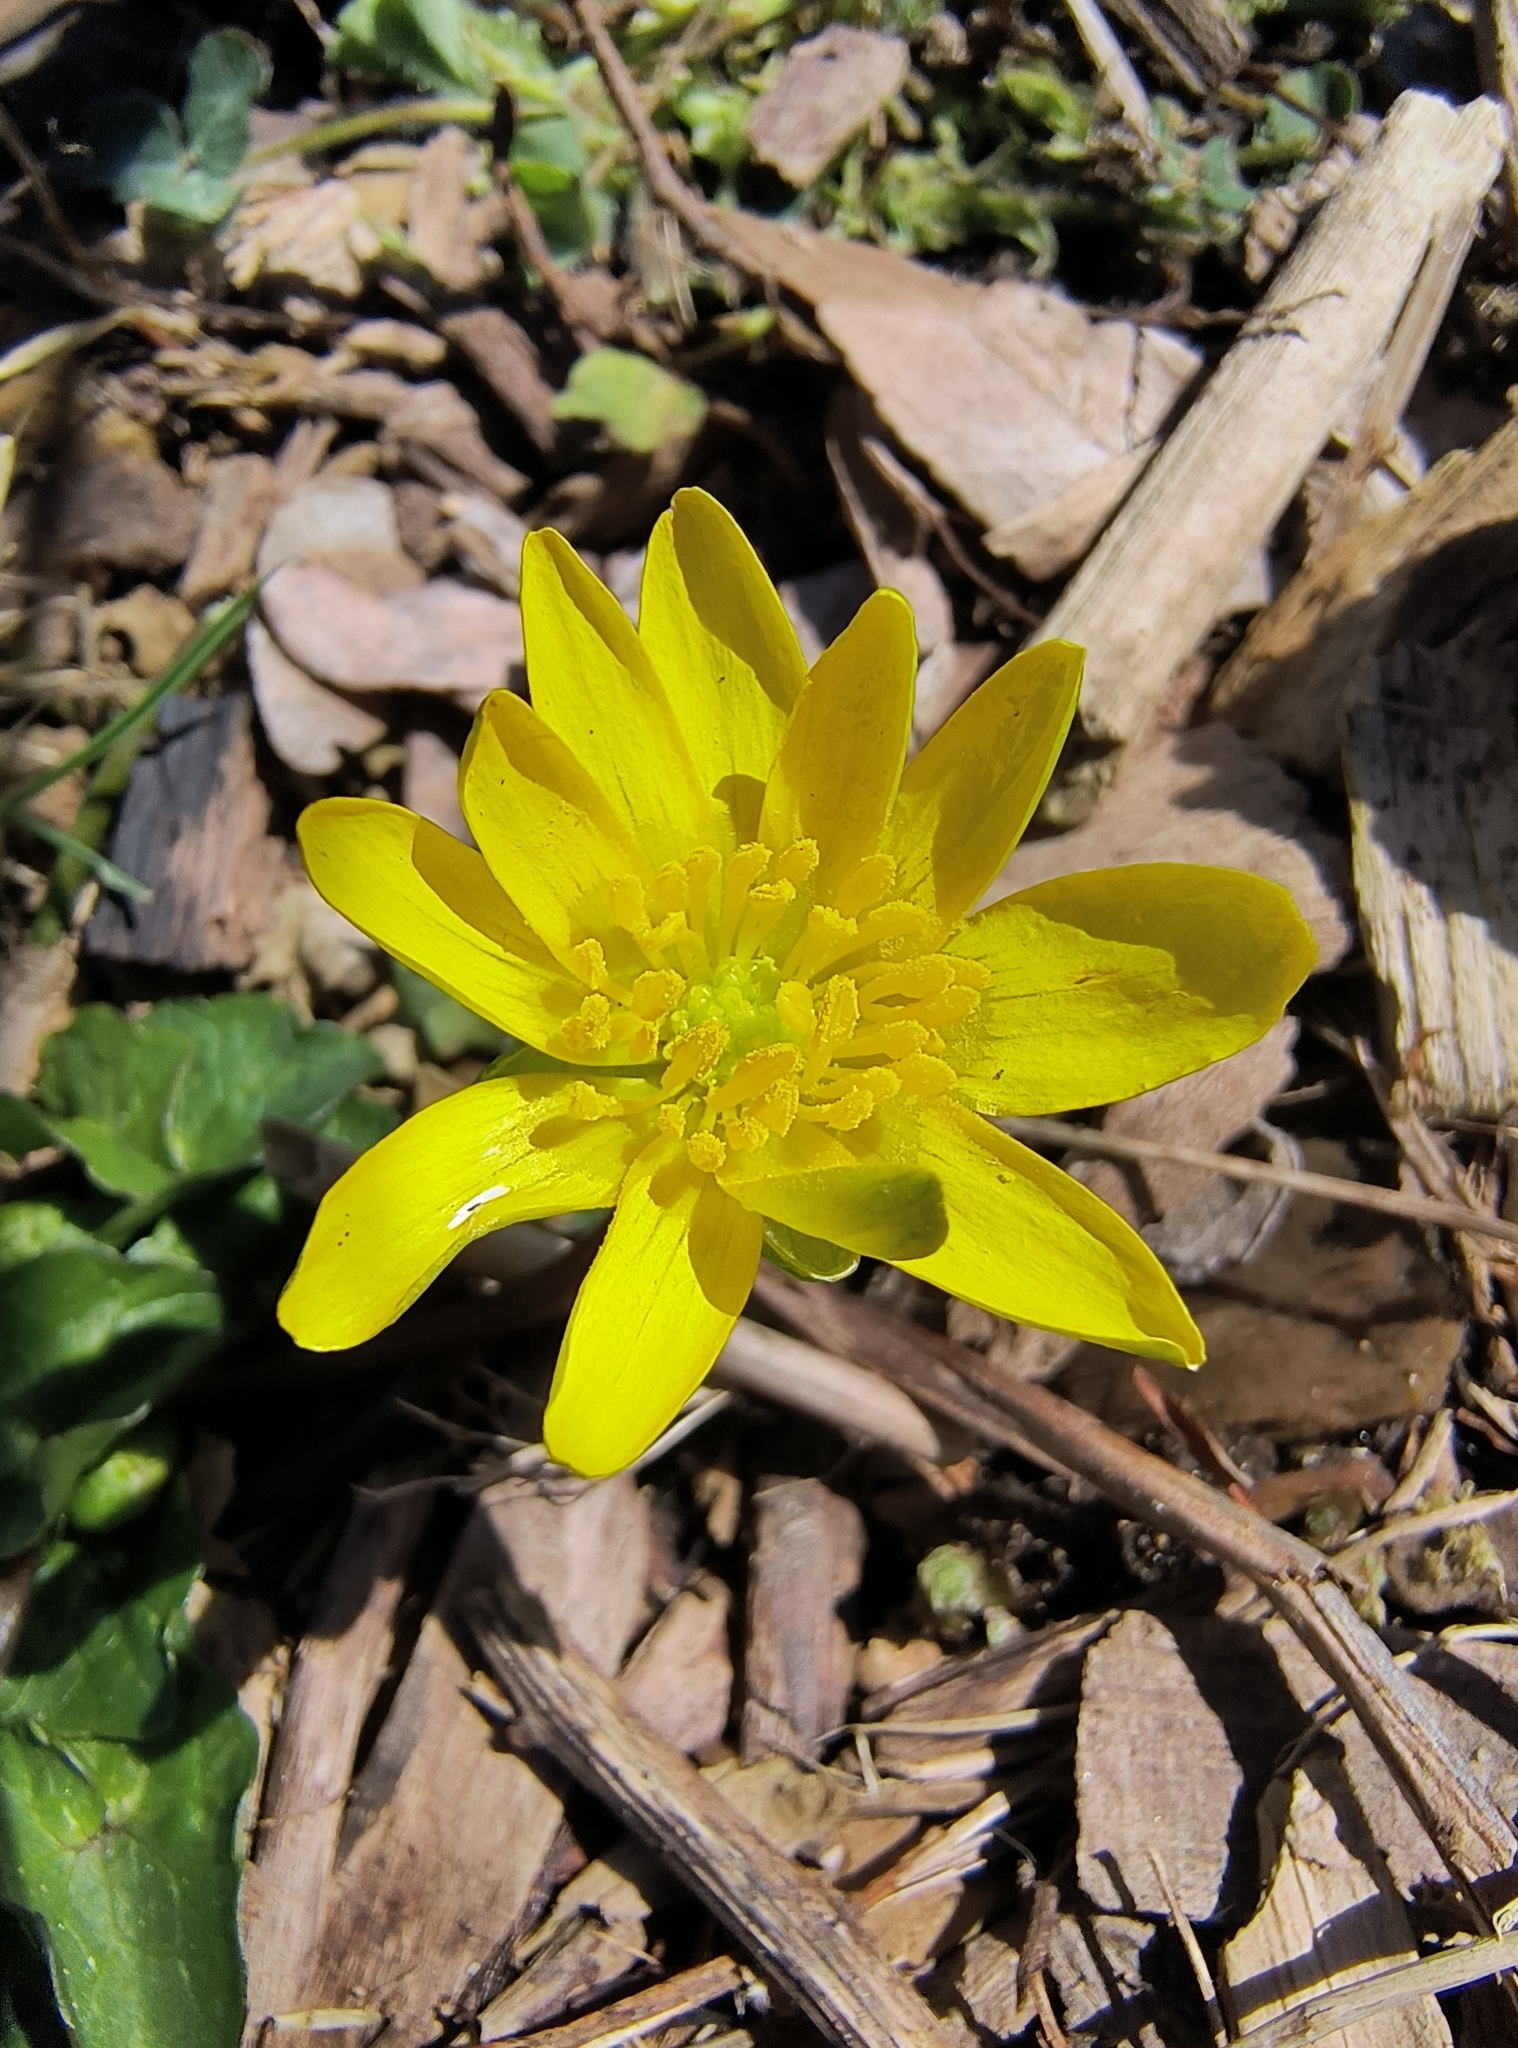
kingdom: Plantae
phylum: Tracheophyta
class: Magnoliopsida
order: Ranunculales
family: Ranunculaceae
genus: Ficaria
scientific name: Ficaria verna
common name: Lesser celandine
